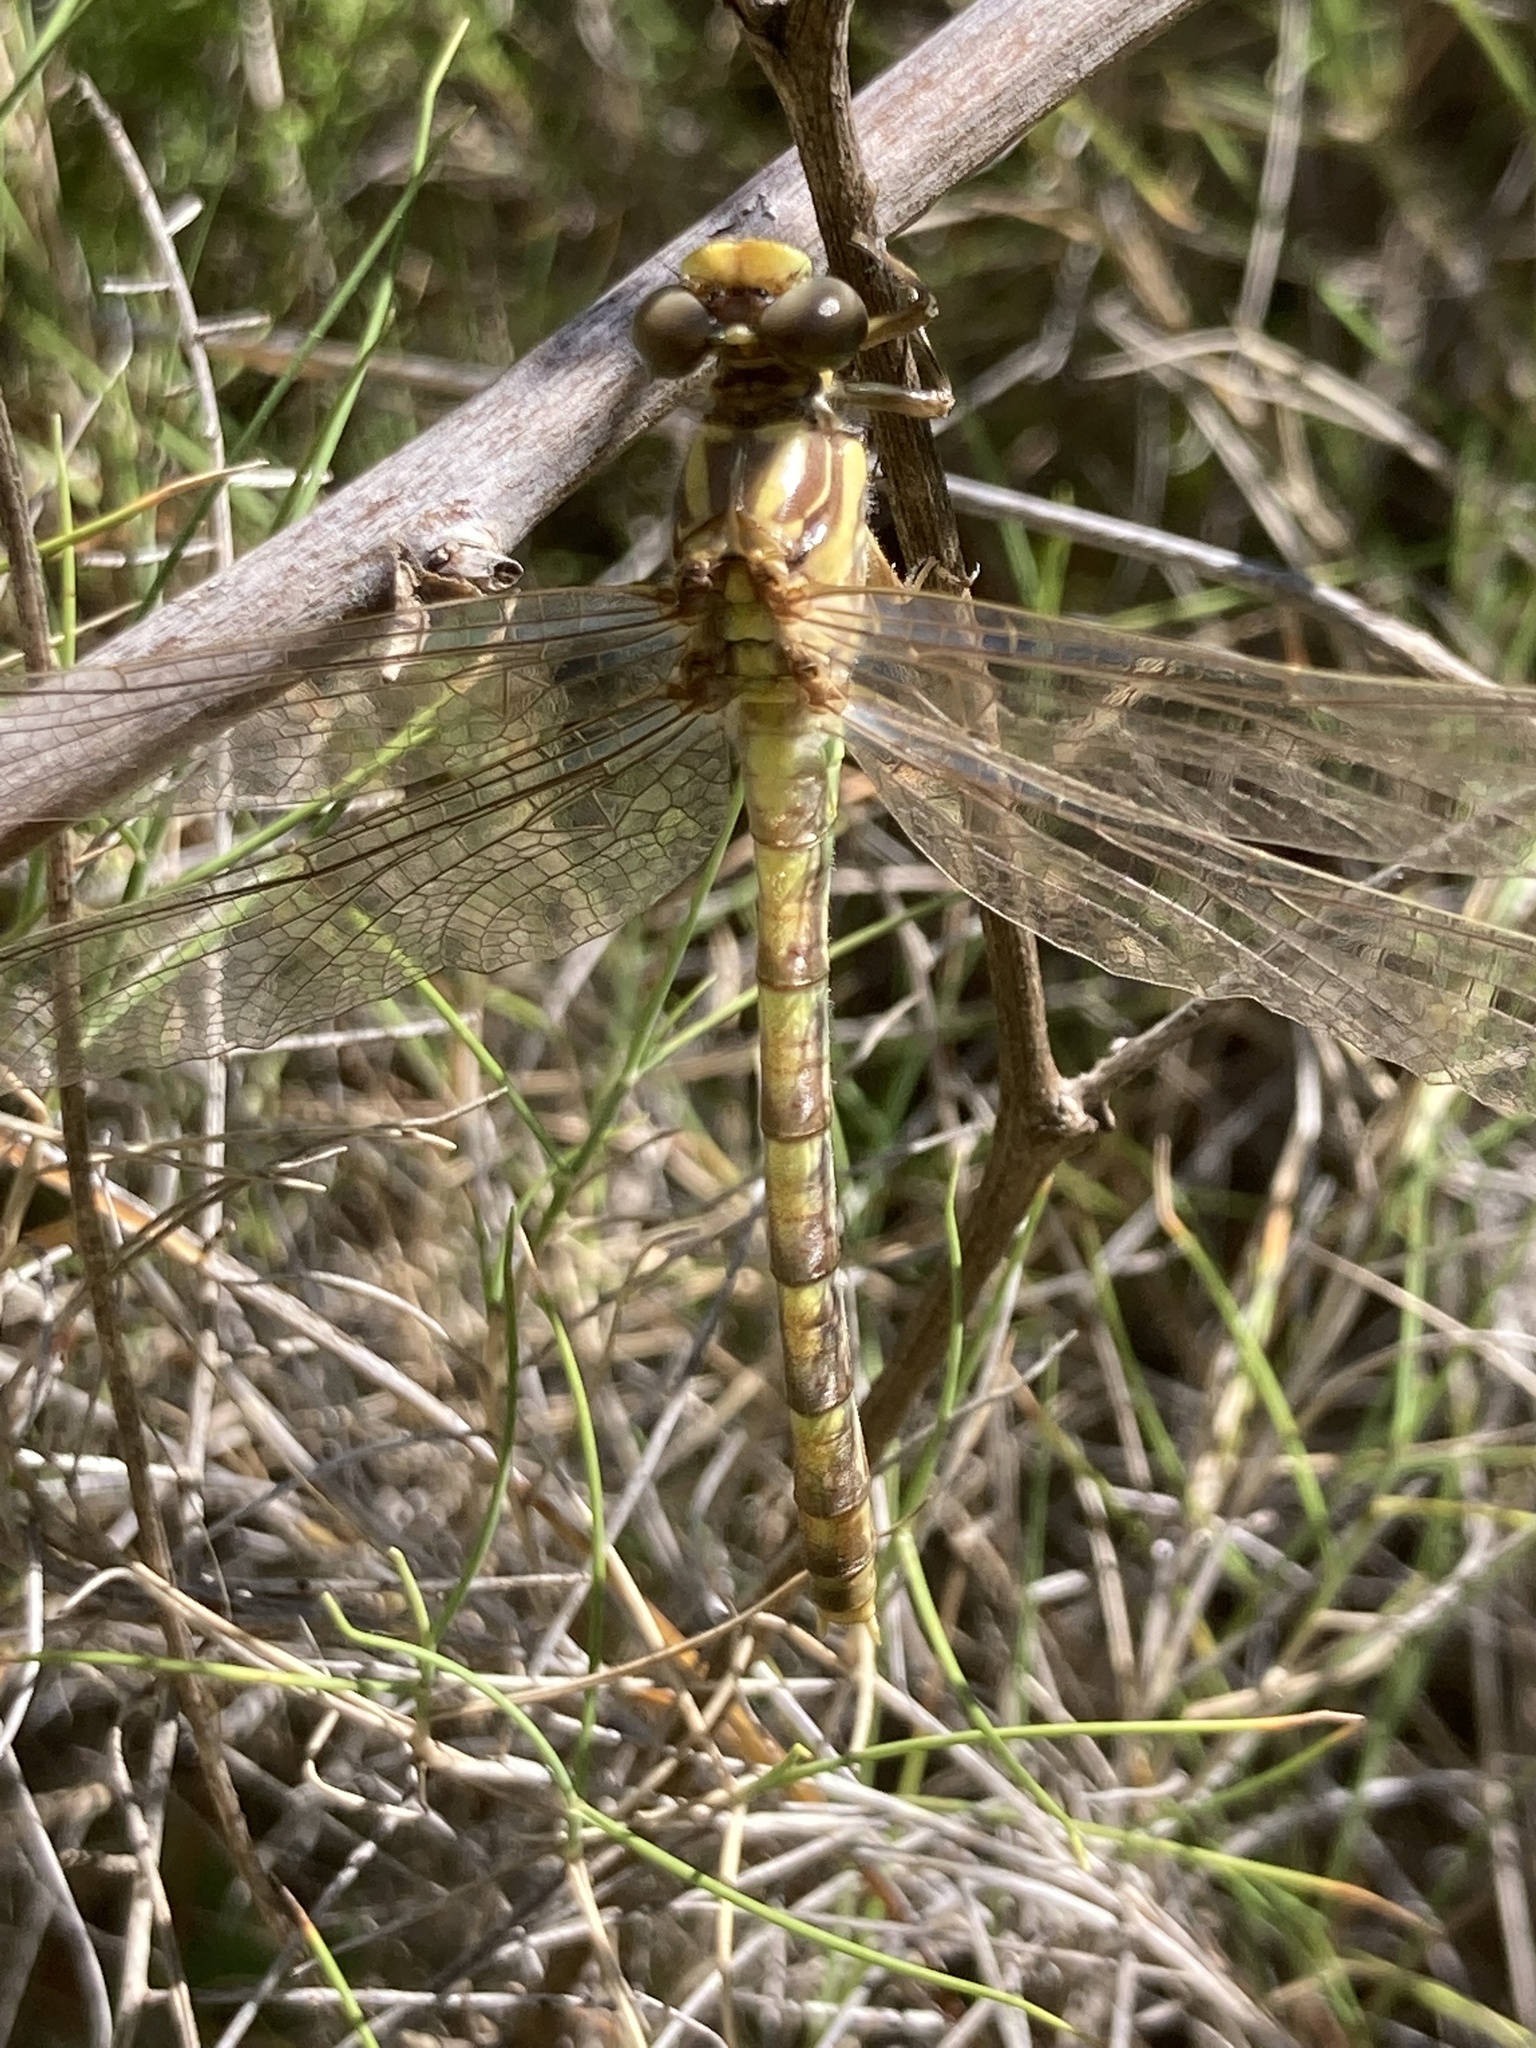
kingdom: Animalia
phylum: Arthropoda
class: Insecta
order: Odonata
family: Gomphidae
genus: Onychogomphus
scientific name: Onychogomphus uncatus
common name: Large pincertail
